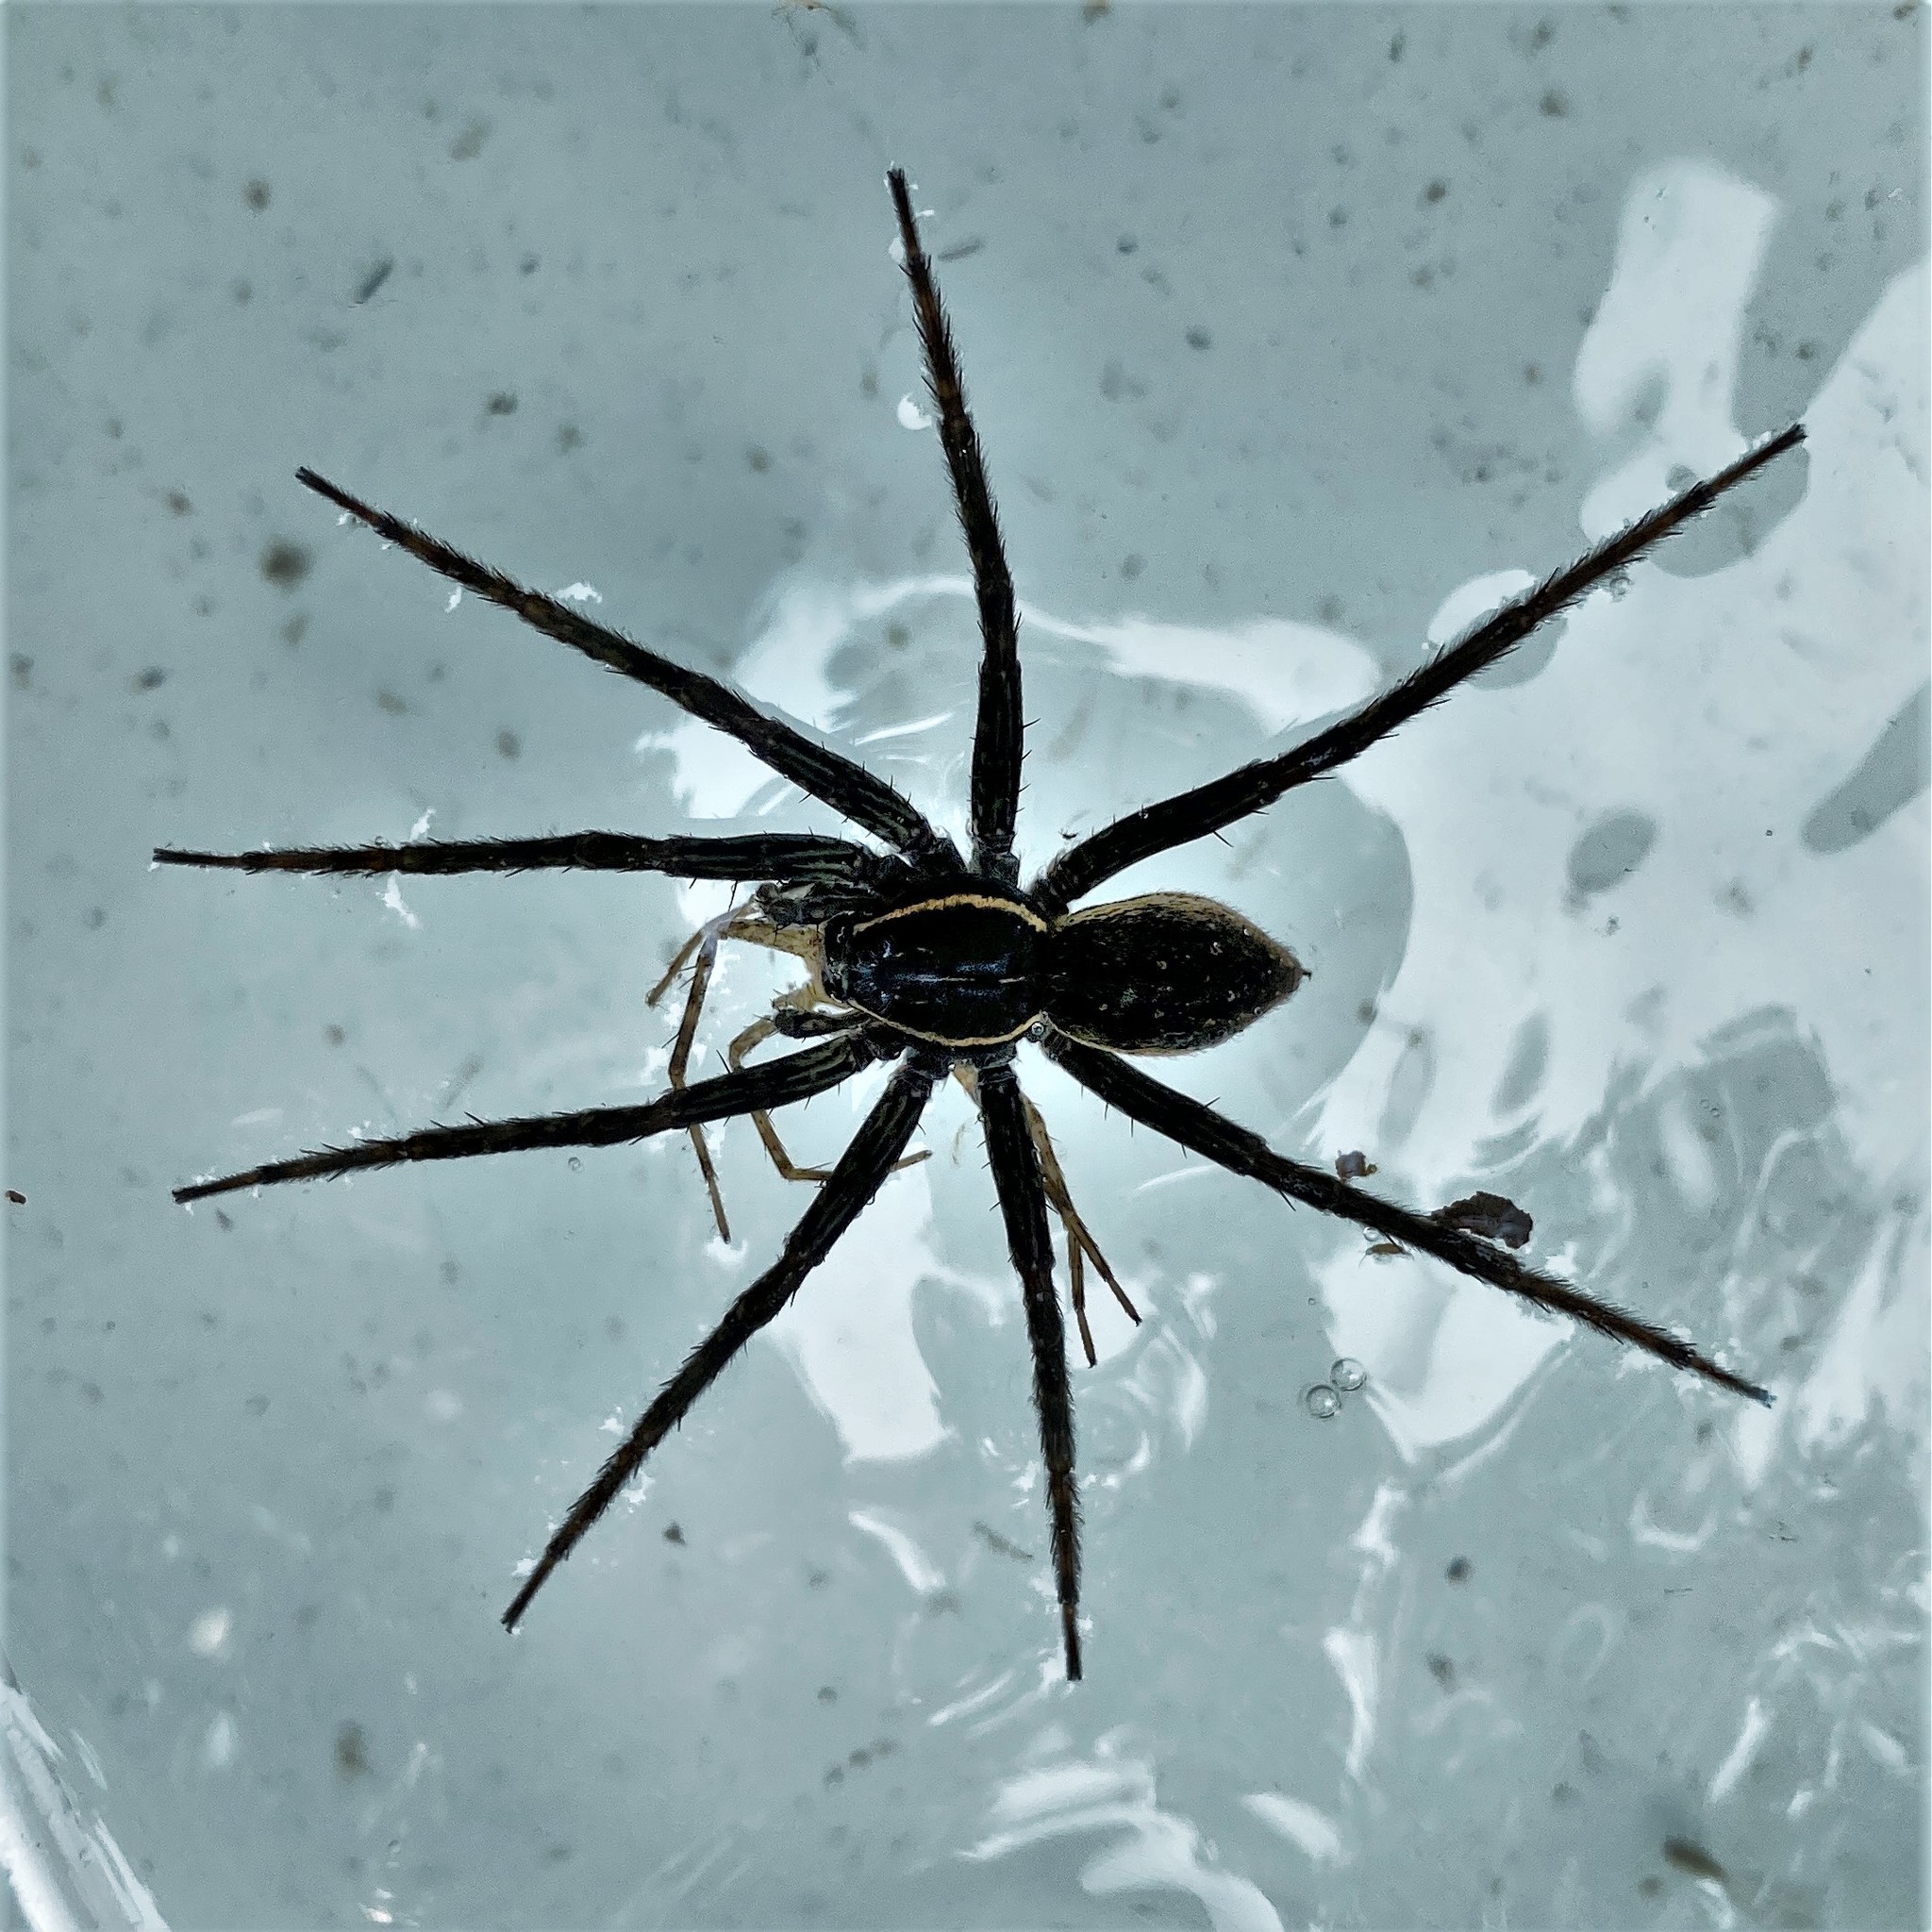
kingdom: Animalia
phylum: Arthropoda
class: Arachnida
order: Araneae
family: Pisauridae
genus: Dolomedes
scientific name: Dolomedes triton
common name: Six-spotted fishing spider
